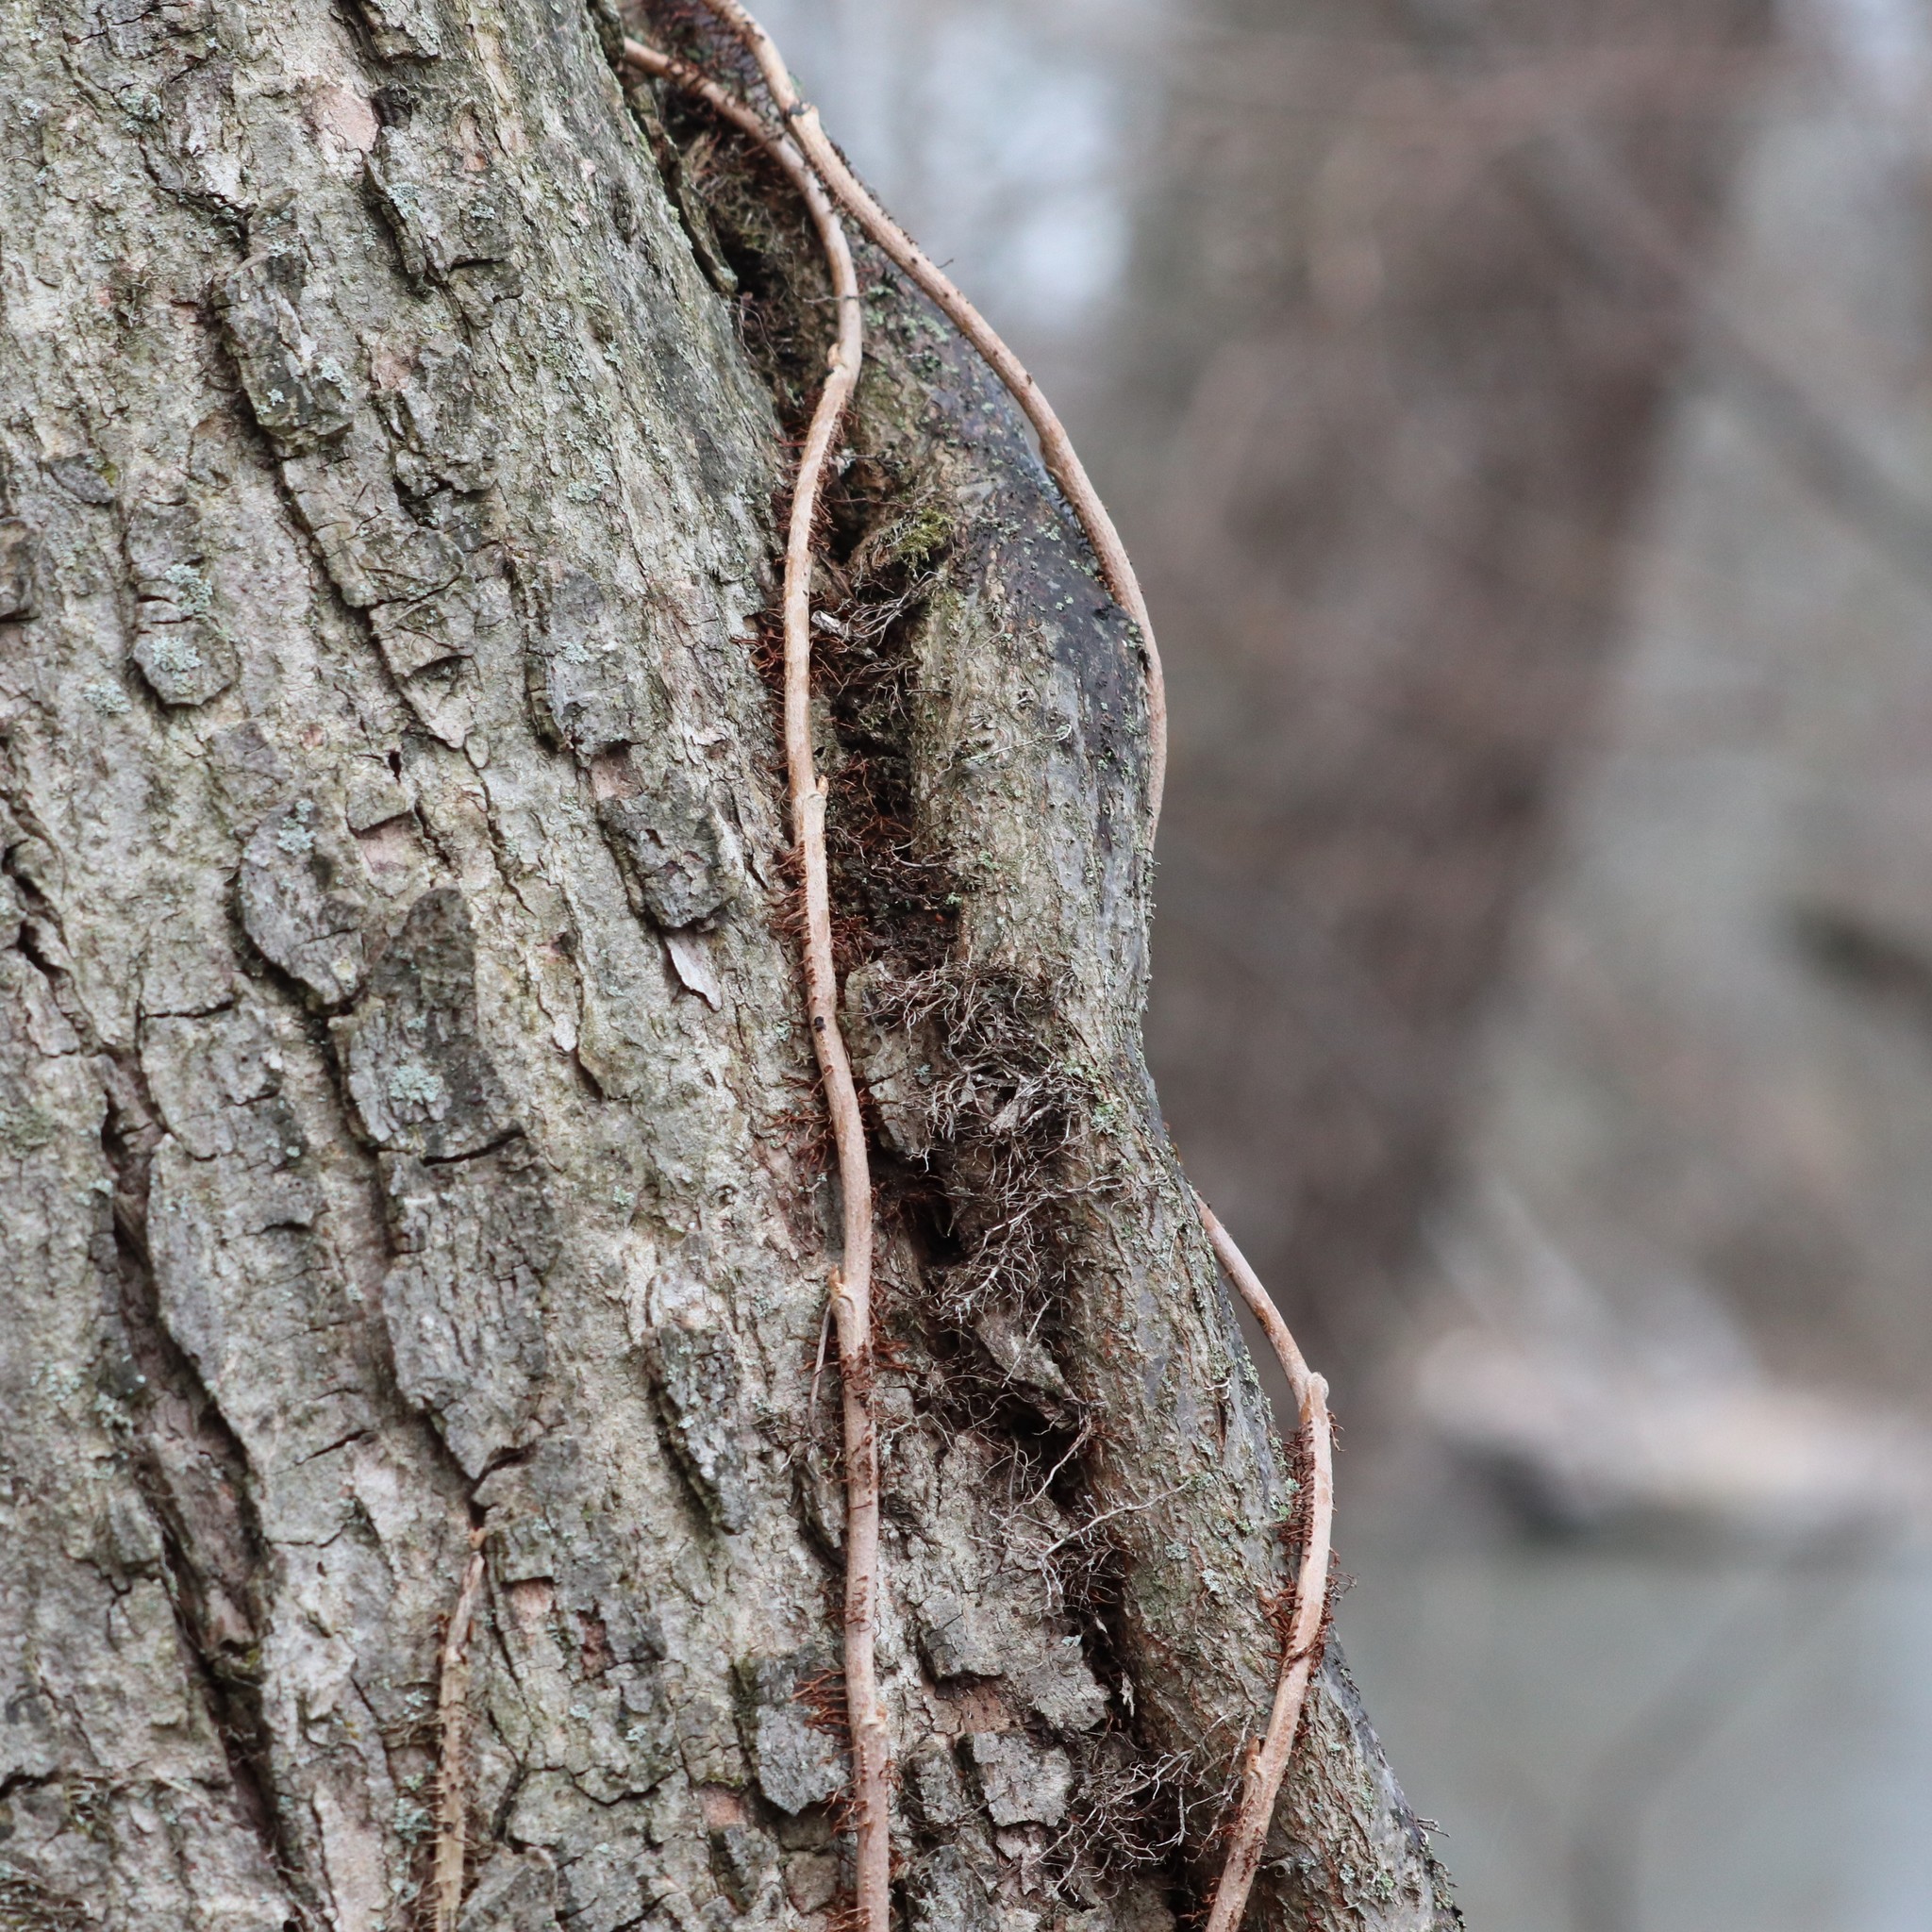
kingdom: Plantae
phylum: Tracheophyta
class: Magnoliopsida
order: Sapindales
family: Anacardiaceae
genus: Toxicodendron
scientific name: Toxicodendron radicans
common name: Poison ivy
